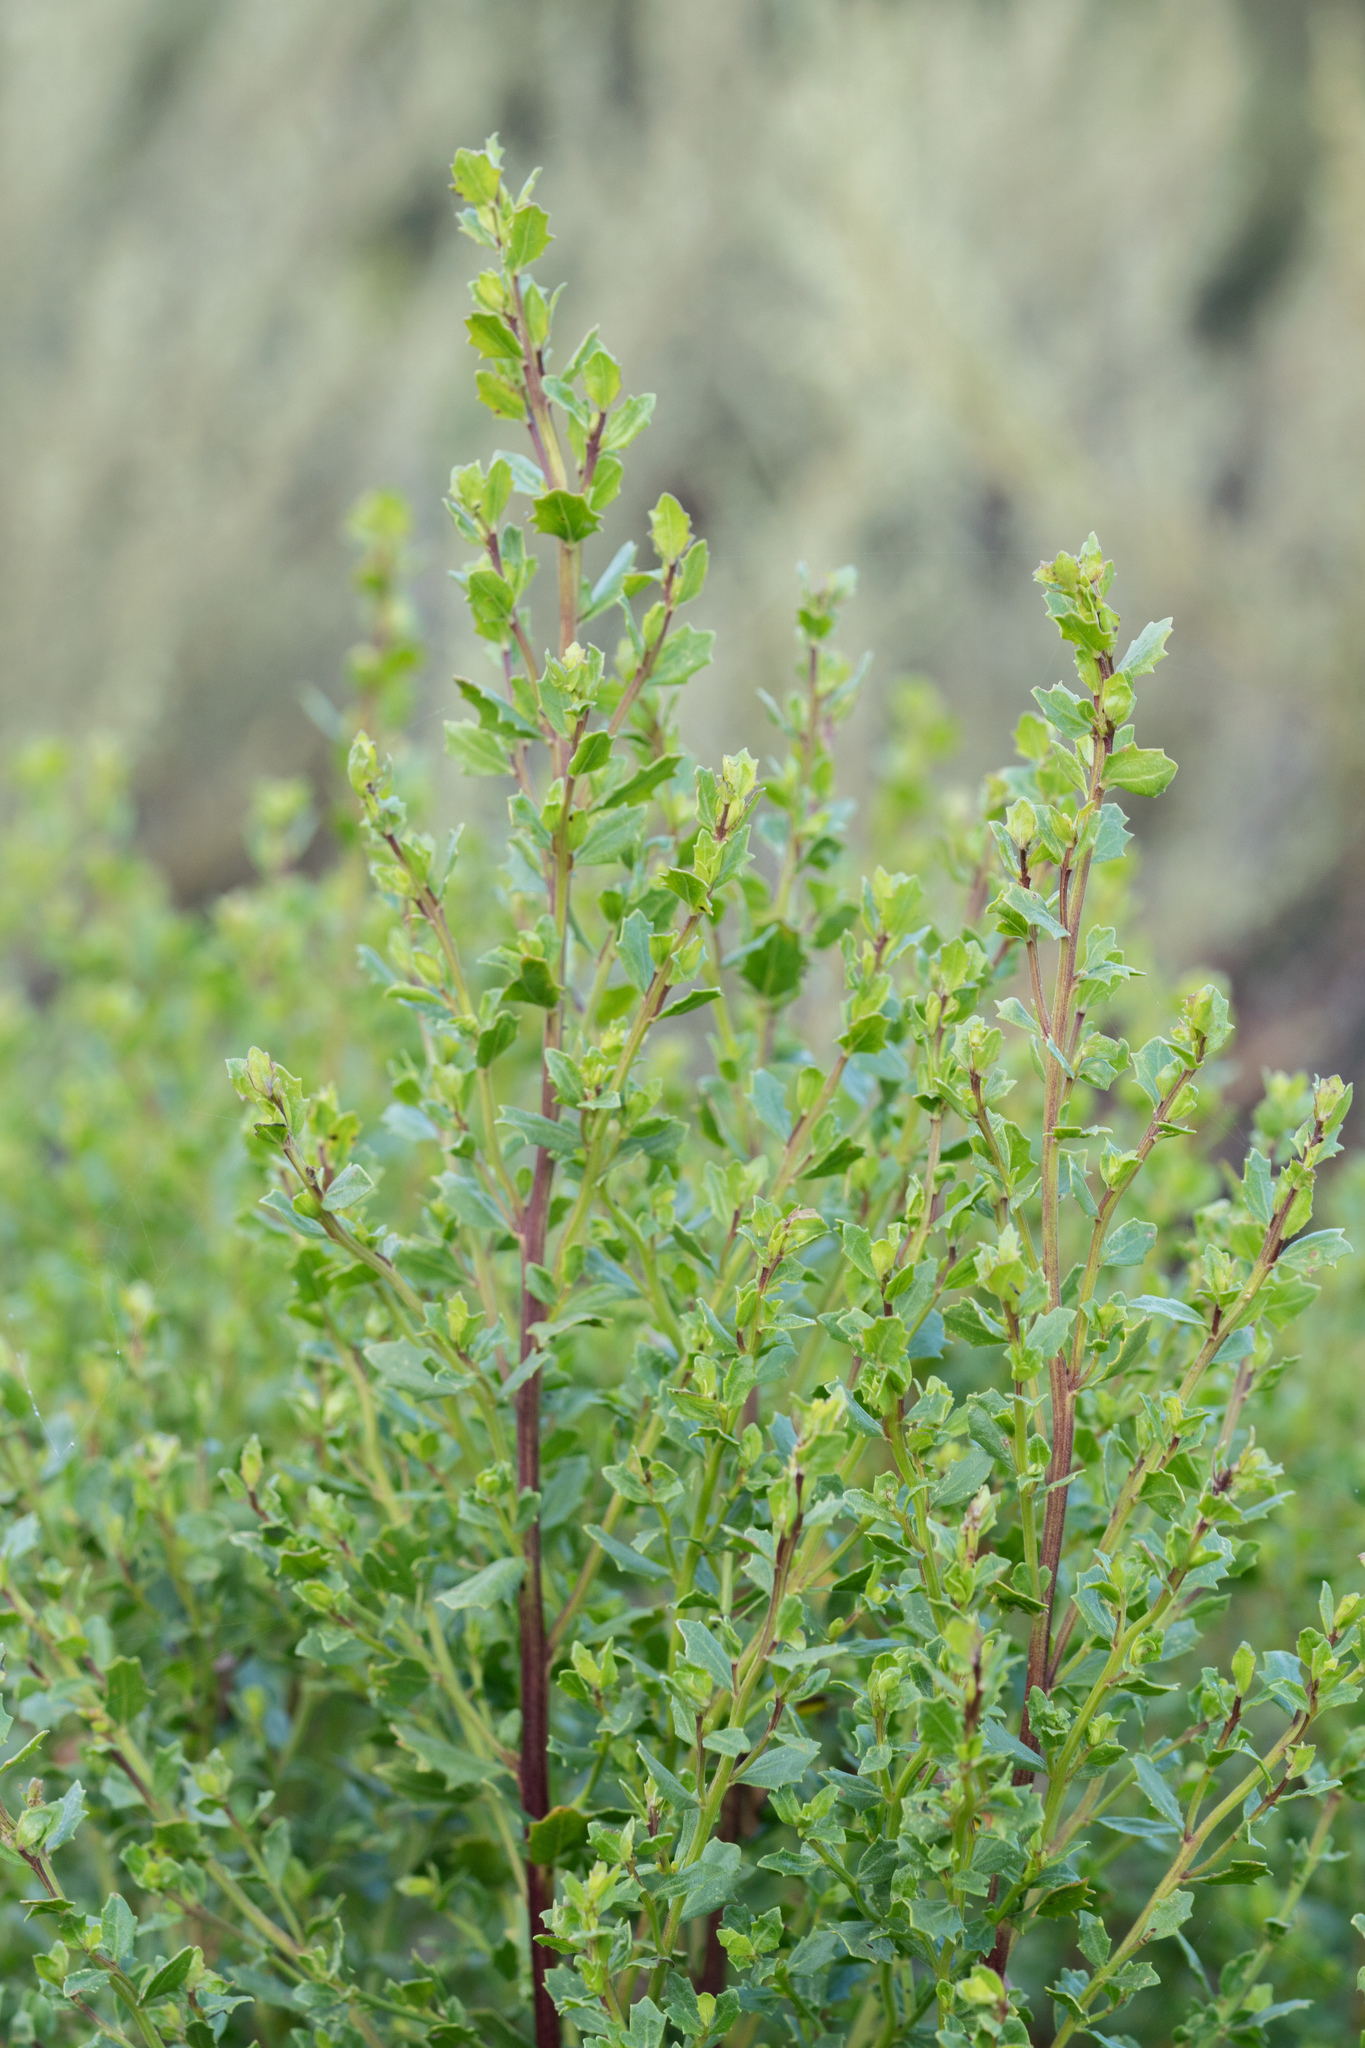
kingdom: Plantae
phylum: Tracheophyta
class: Magnoliopsida
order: Asterales
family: Asteraceae
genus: Baccharis
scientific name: Baccharis pilularis
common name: Coyotebrush
